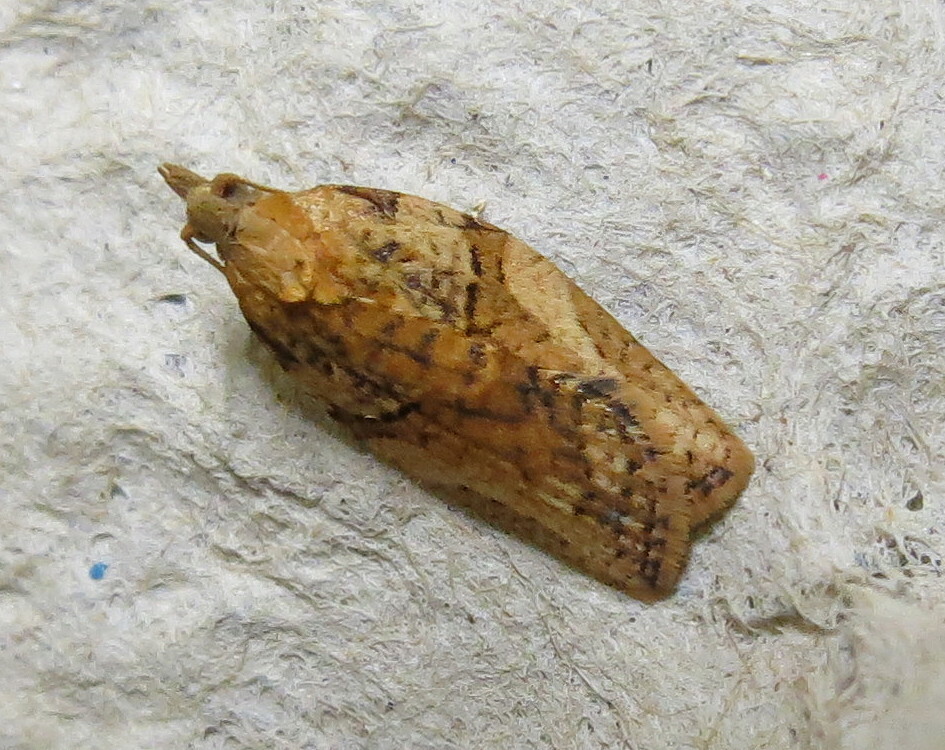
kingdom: Animalia
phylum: Arthropoda
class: Insecta
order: Lepidoptera
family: Tortricidae
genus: Epiphyas
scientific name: Epiphyas postvittana
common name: Light brown apple moth
